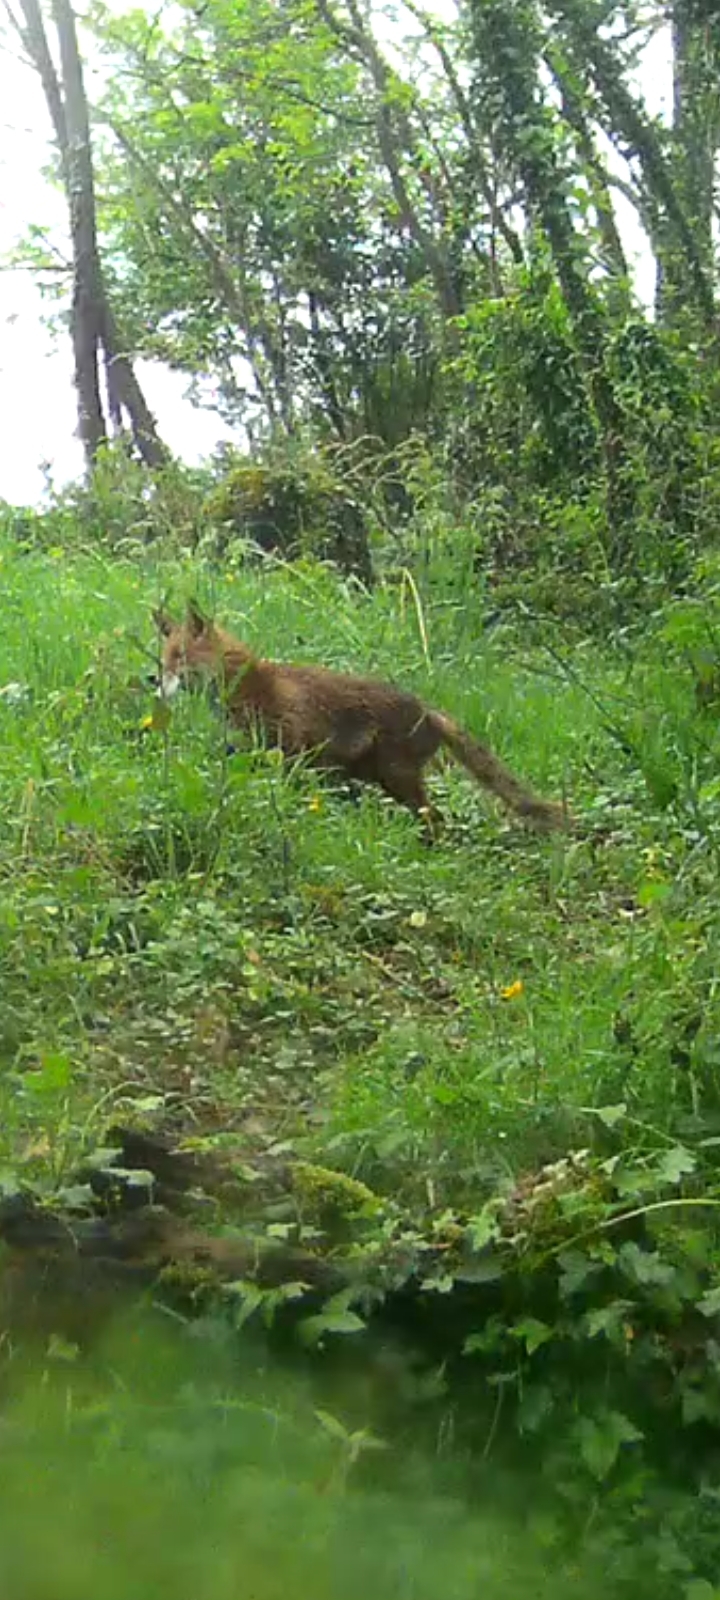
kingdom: Animalia
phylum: Chordata
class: Mammalia
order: Carnivora
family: Canidae
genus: Vulpes
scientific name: Vulpes vulpes
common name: Red fox
